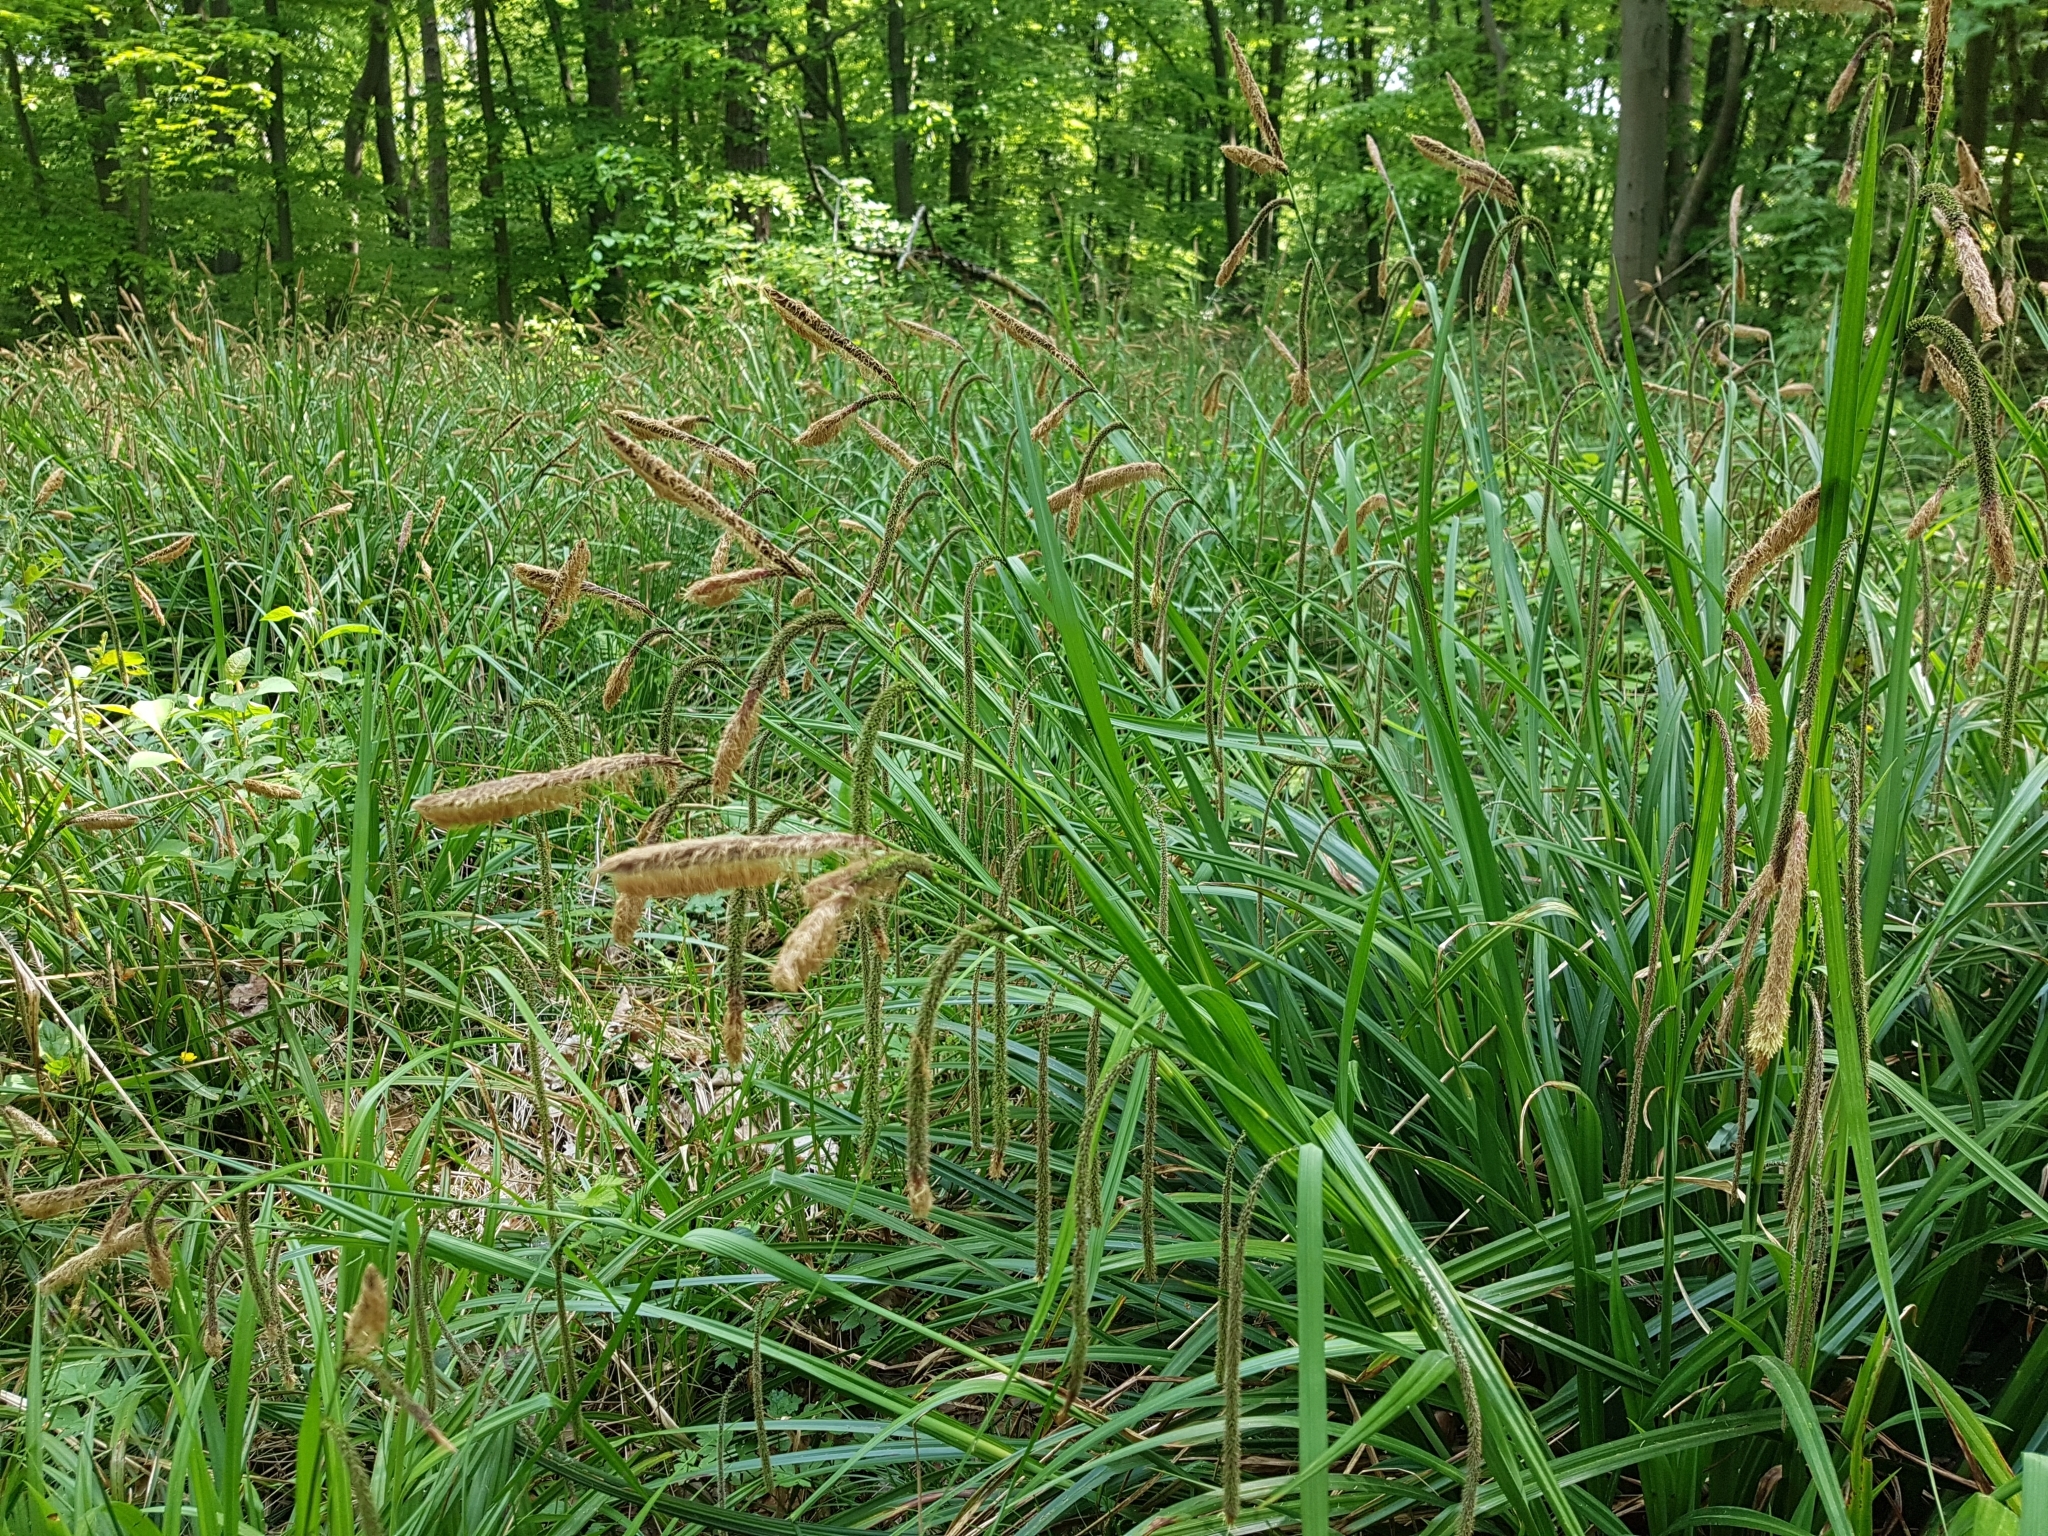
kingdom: Plantae
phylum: Tracheophyta
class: Liliopsida
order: Poales
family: Cyperaceae
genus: Carex
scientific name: Carex pendula
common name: Pendulous sedge
